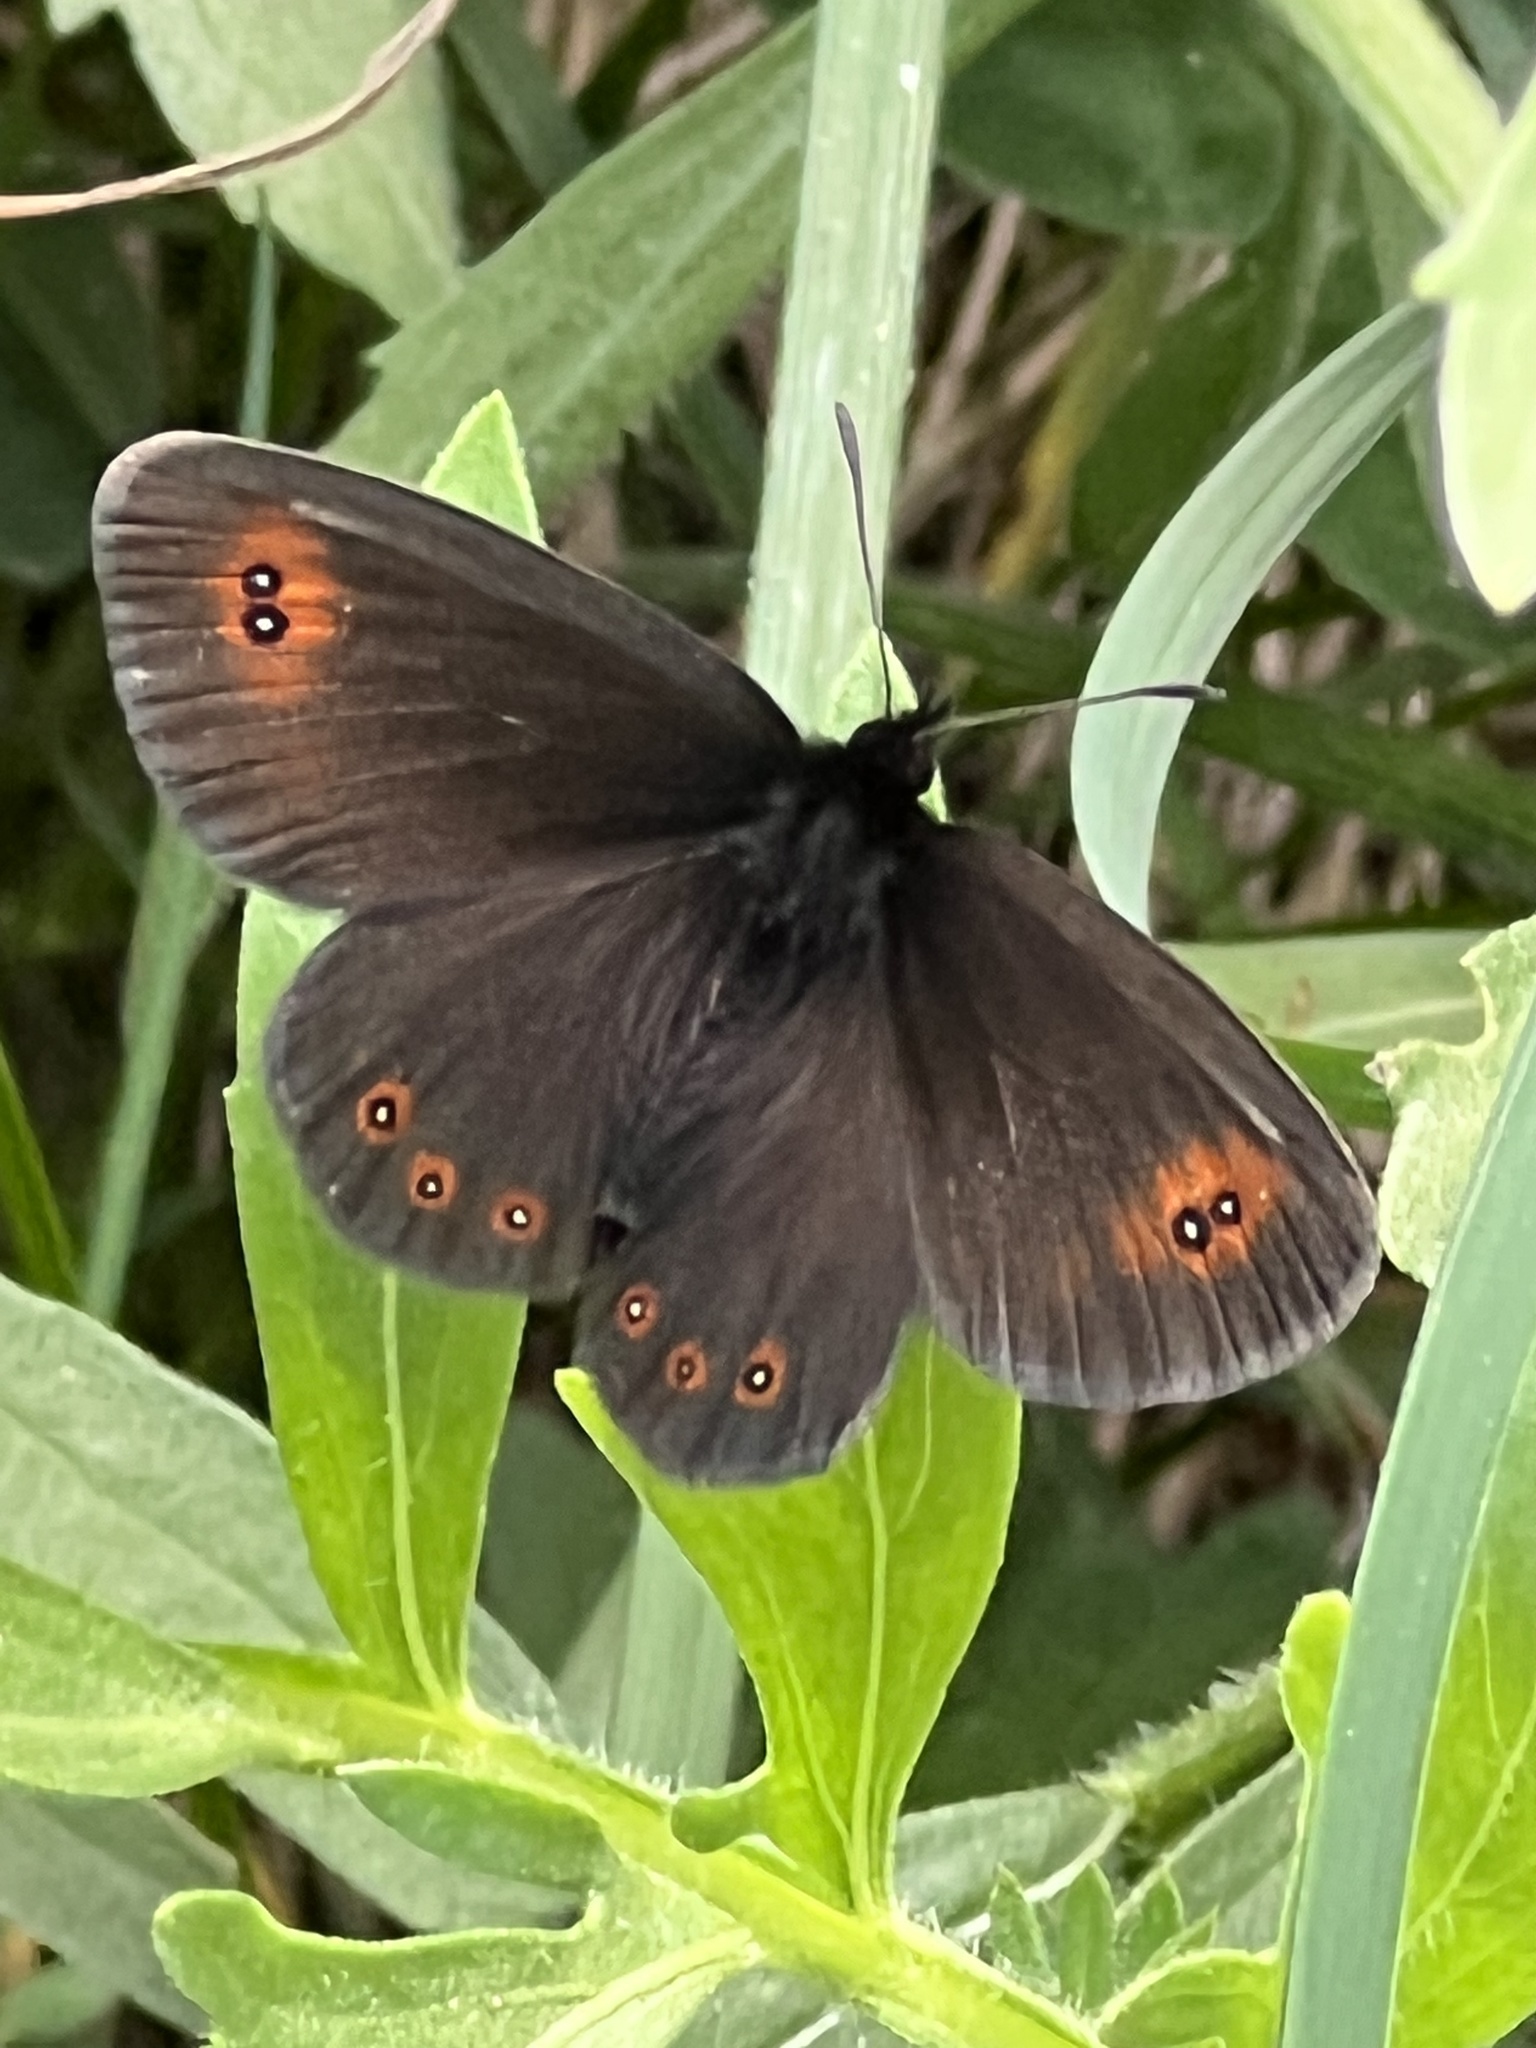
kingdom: Animalia
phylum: Arthropoda
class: Insecta
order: Lepidoptera
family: Nymphalidae
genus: Erebia
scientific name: Erebia oeme
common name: Bright-eyed ringlet
